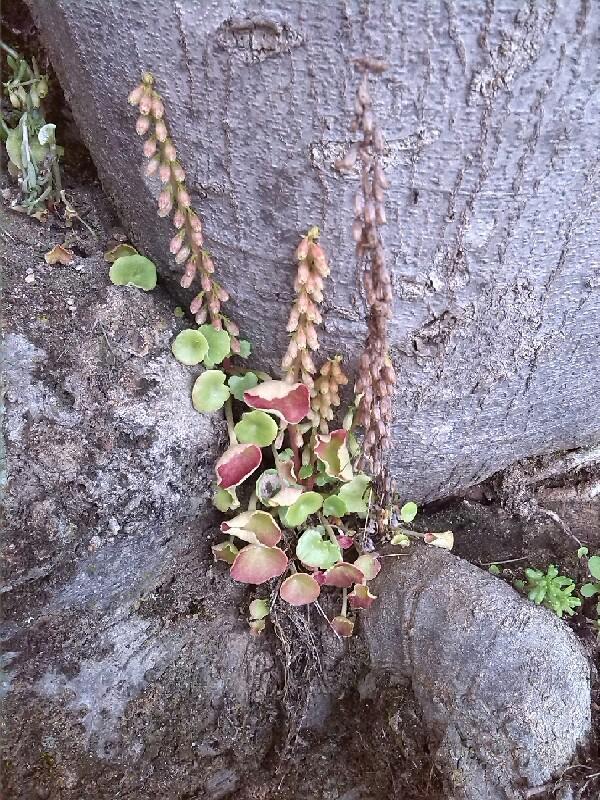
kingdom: Plantae
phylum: Tracheophyta
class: Magnoliopsida
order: Saxifragales
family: Crassulaceae
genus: Umbilicus
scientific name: Umbilicus rupestris
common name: Navelwort
